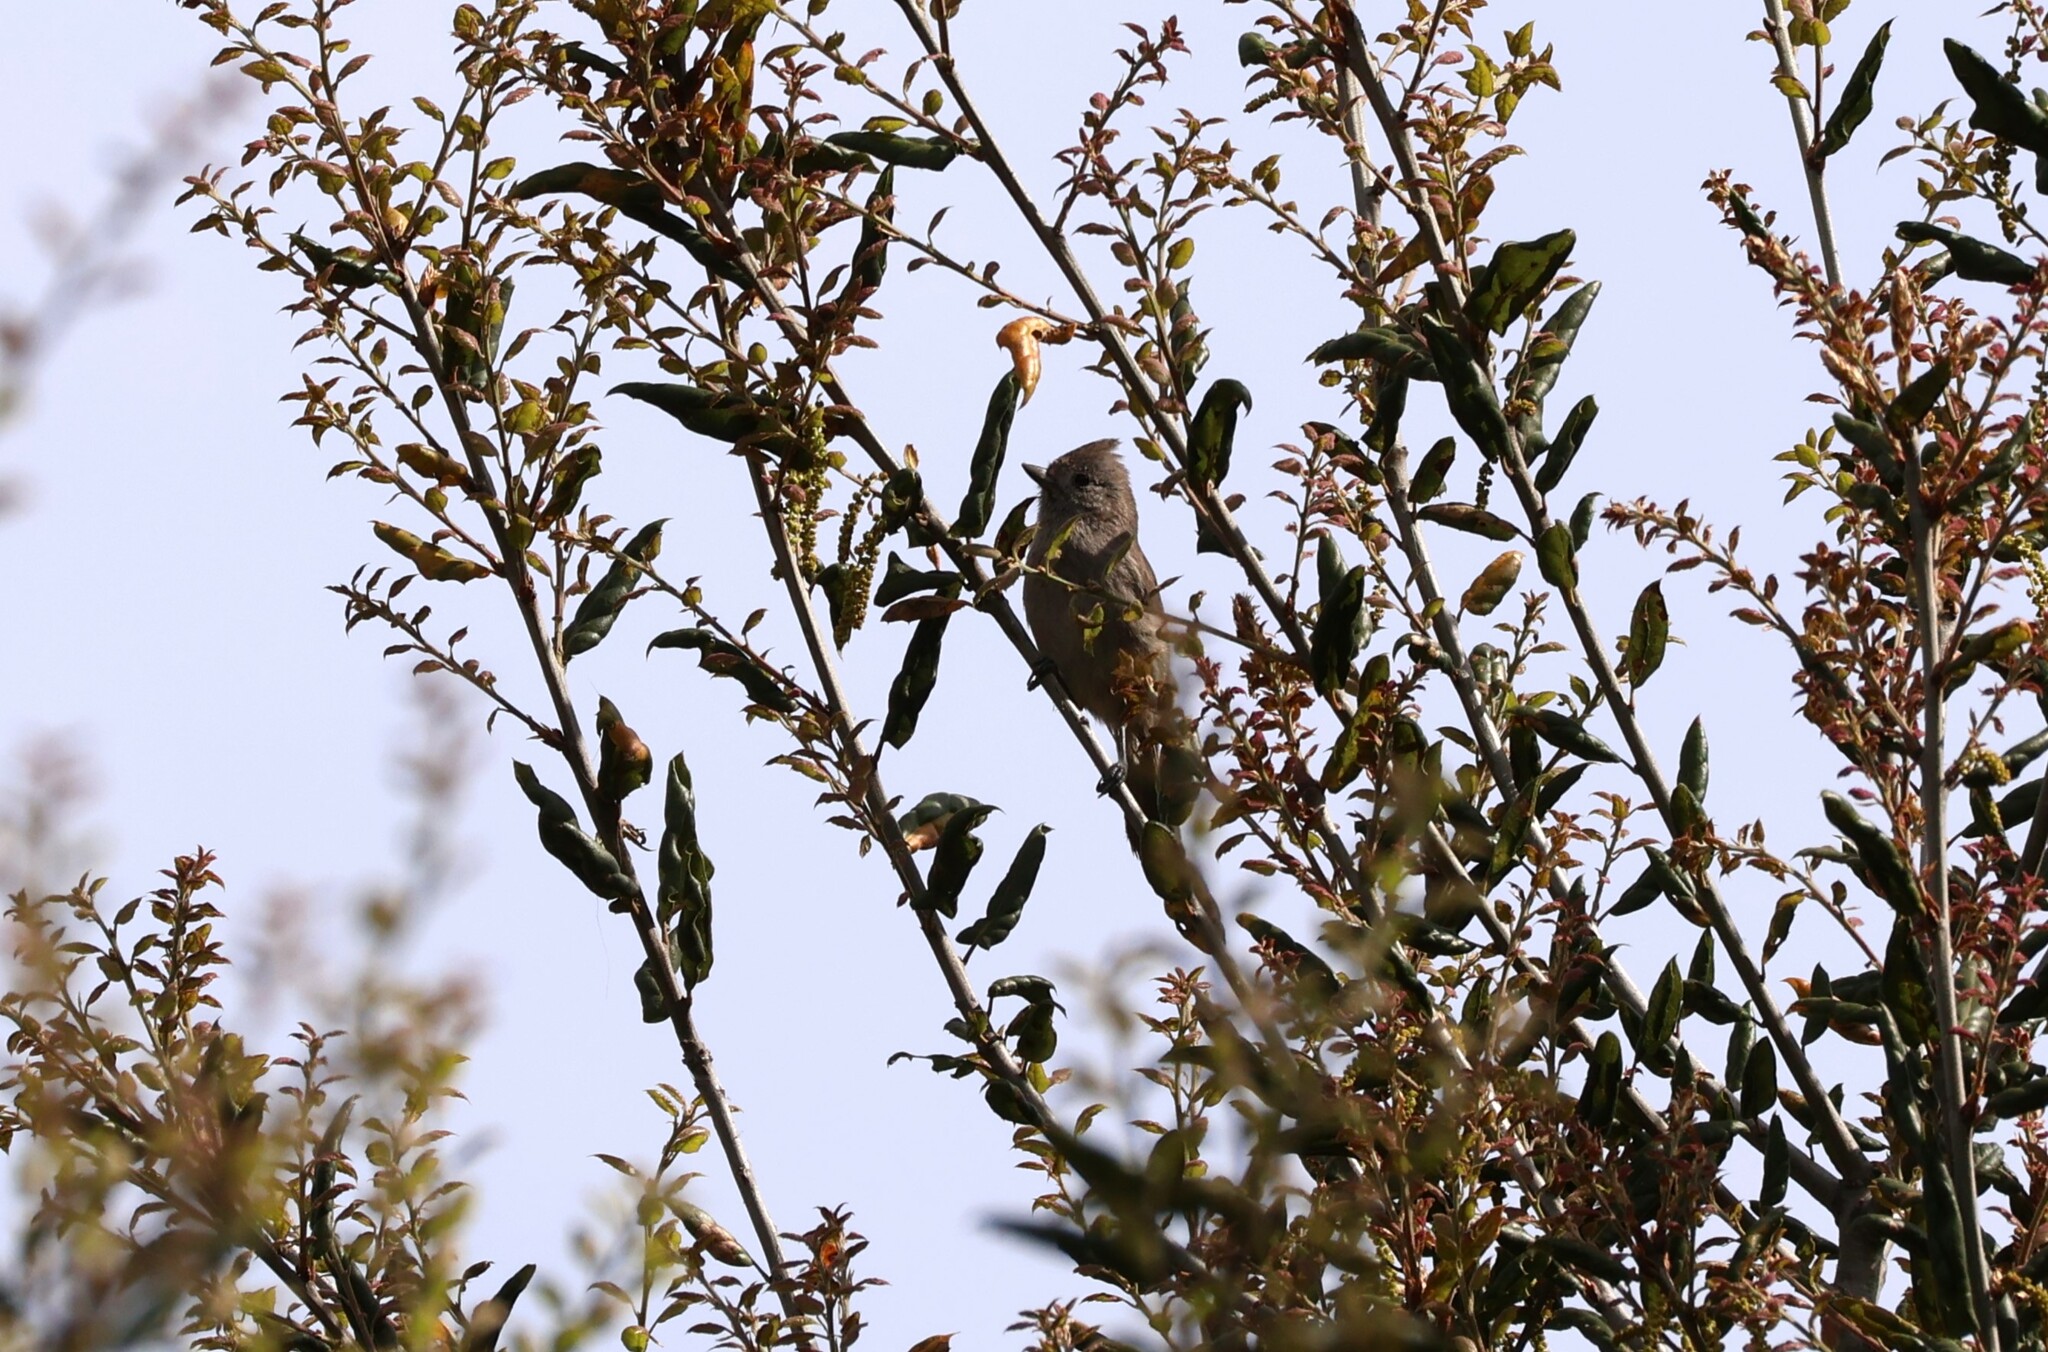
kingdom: Animalia
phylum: Chordata
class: Aves
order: Passeriformes
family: Paridae
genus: Baeolophus
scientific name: Baeolophus inornatus
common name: Oak titmouse
